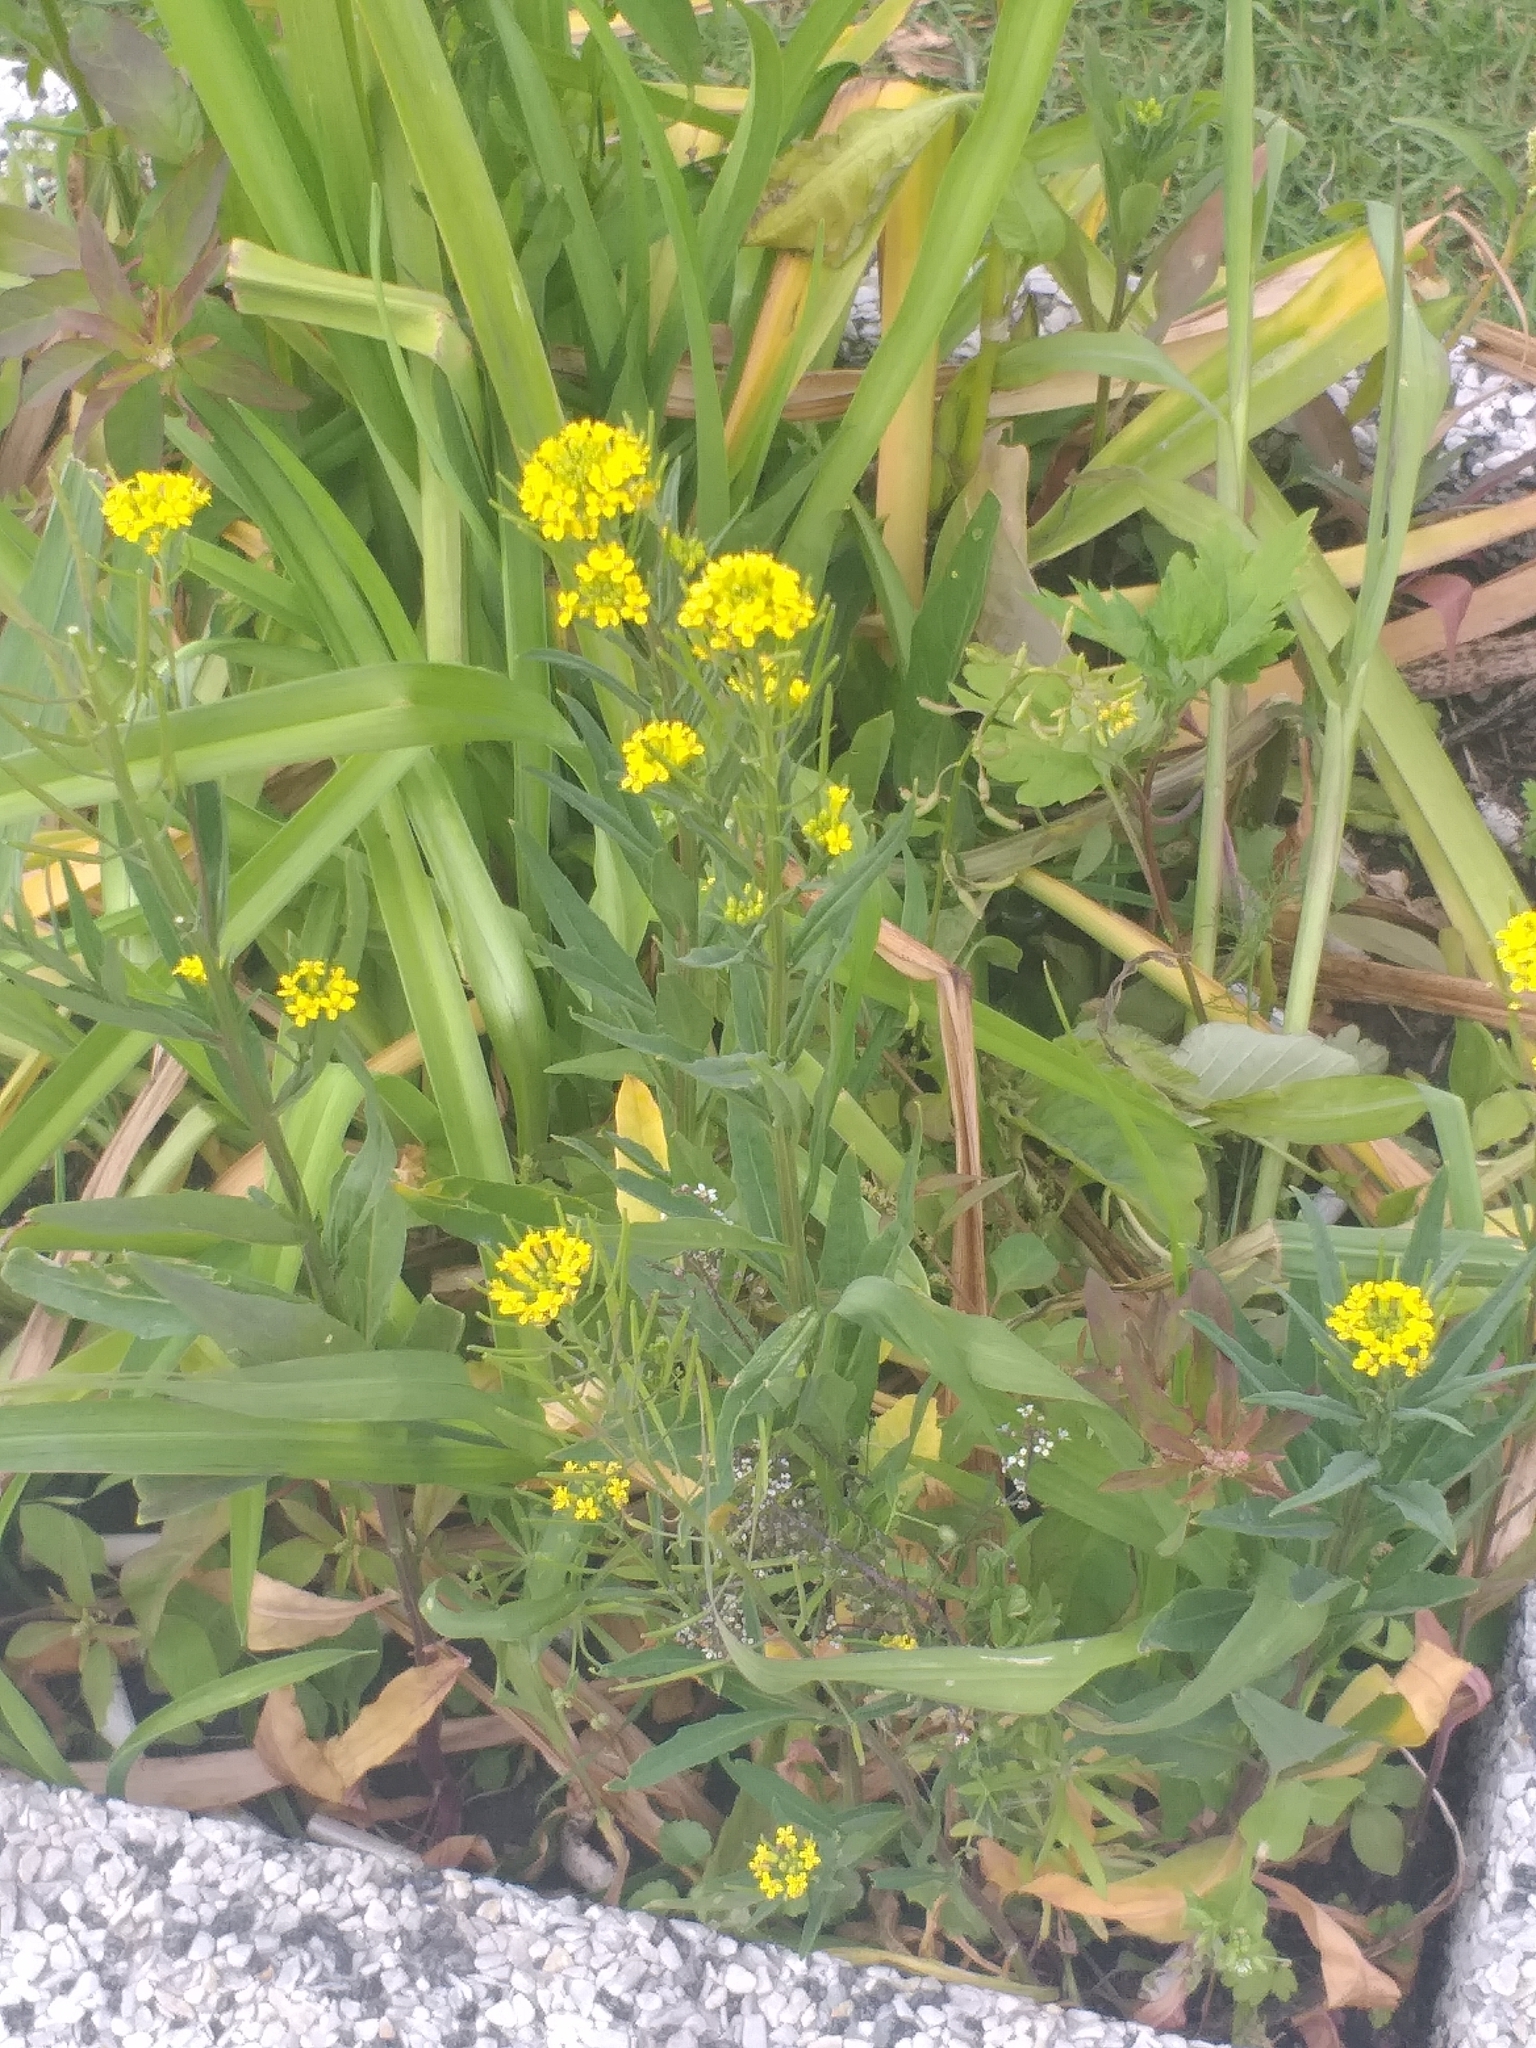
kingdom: Plantae
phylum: Tracheophyta
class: Magnoliopsida
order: Brassicales
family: Brassicaceae
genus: Erysimum
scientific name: Erysimum cheiranthoides
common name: Treacle mustard
